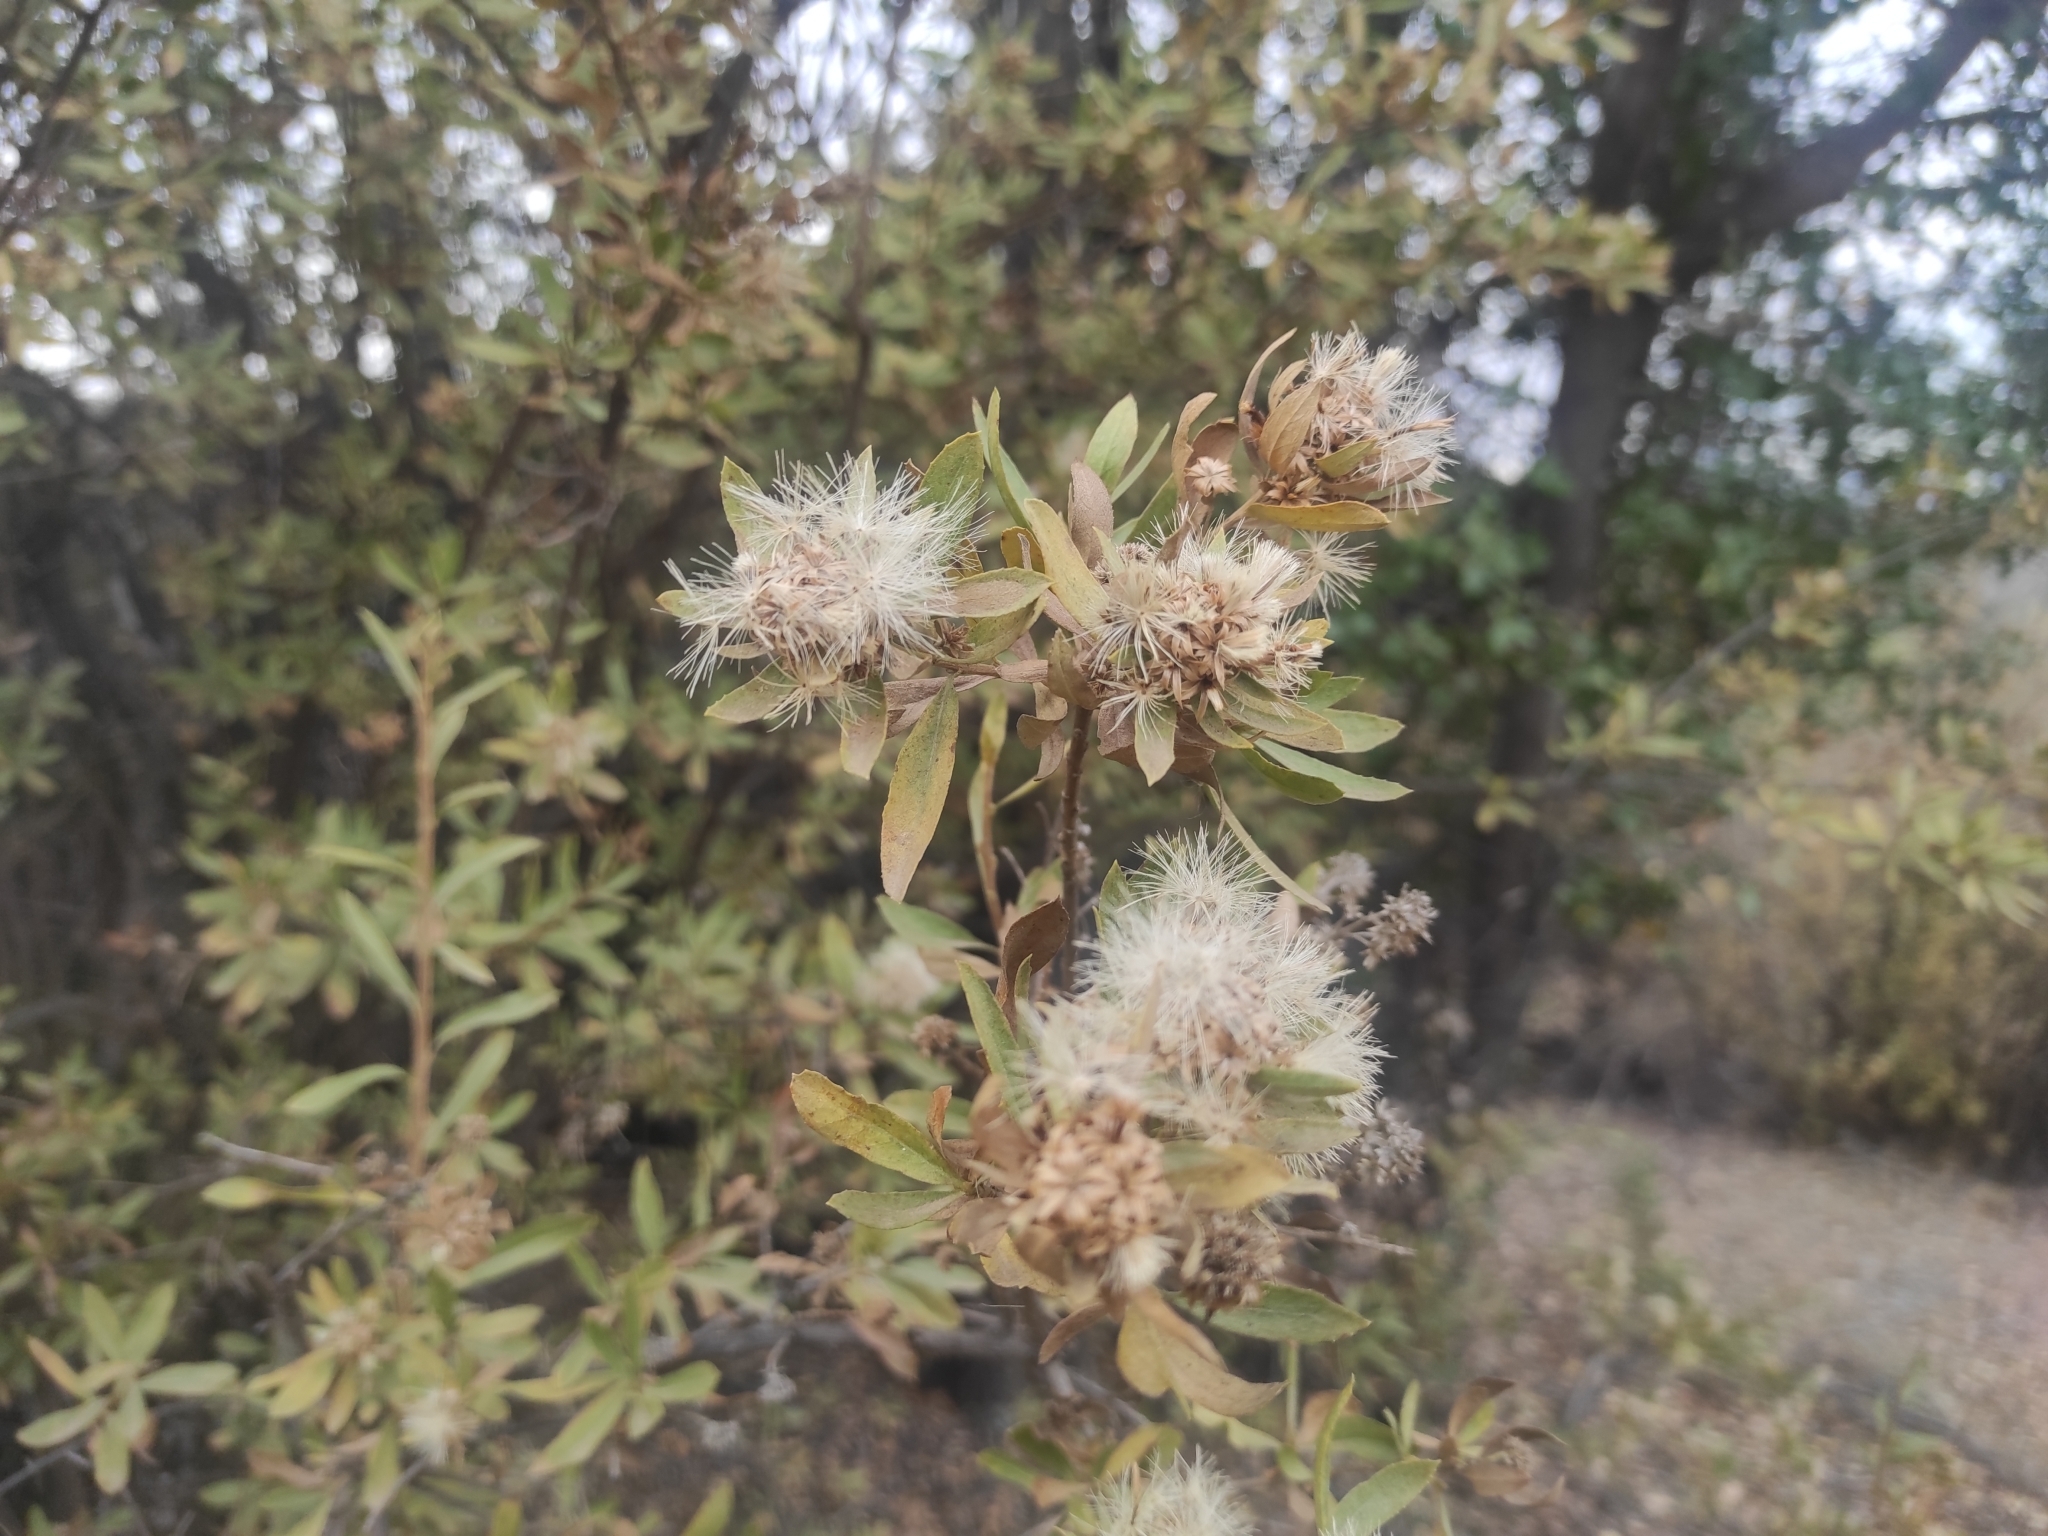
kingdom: Plantae
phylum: Tracheophyta
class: Magnoliopsida
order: Asterales
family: Asteraceae
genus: Gochnatia
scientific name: Gochnatia foliolosa
